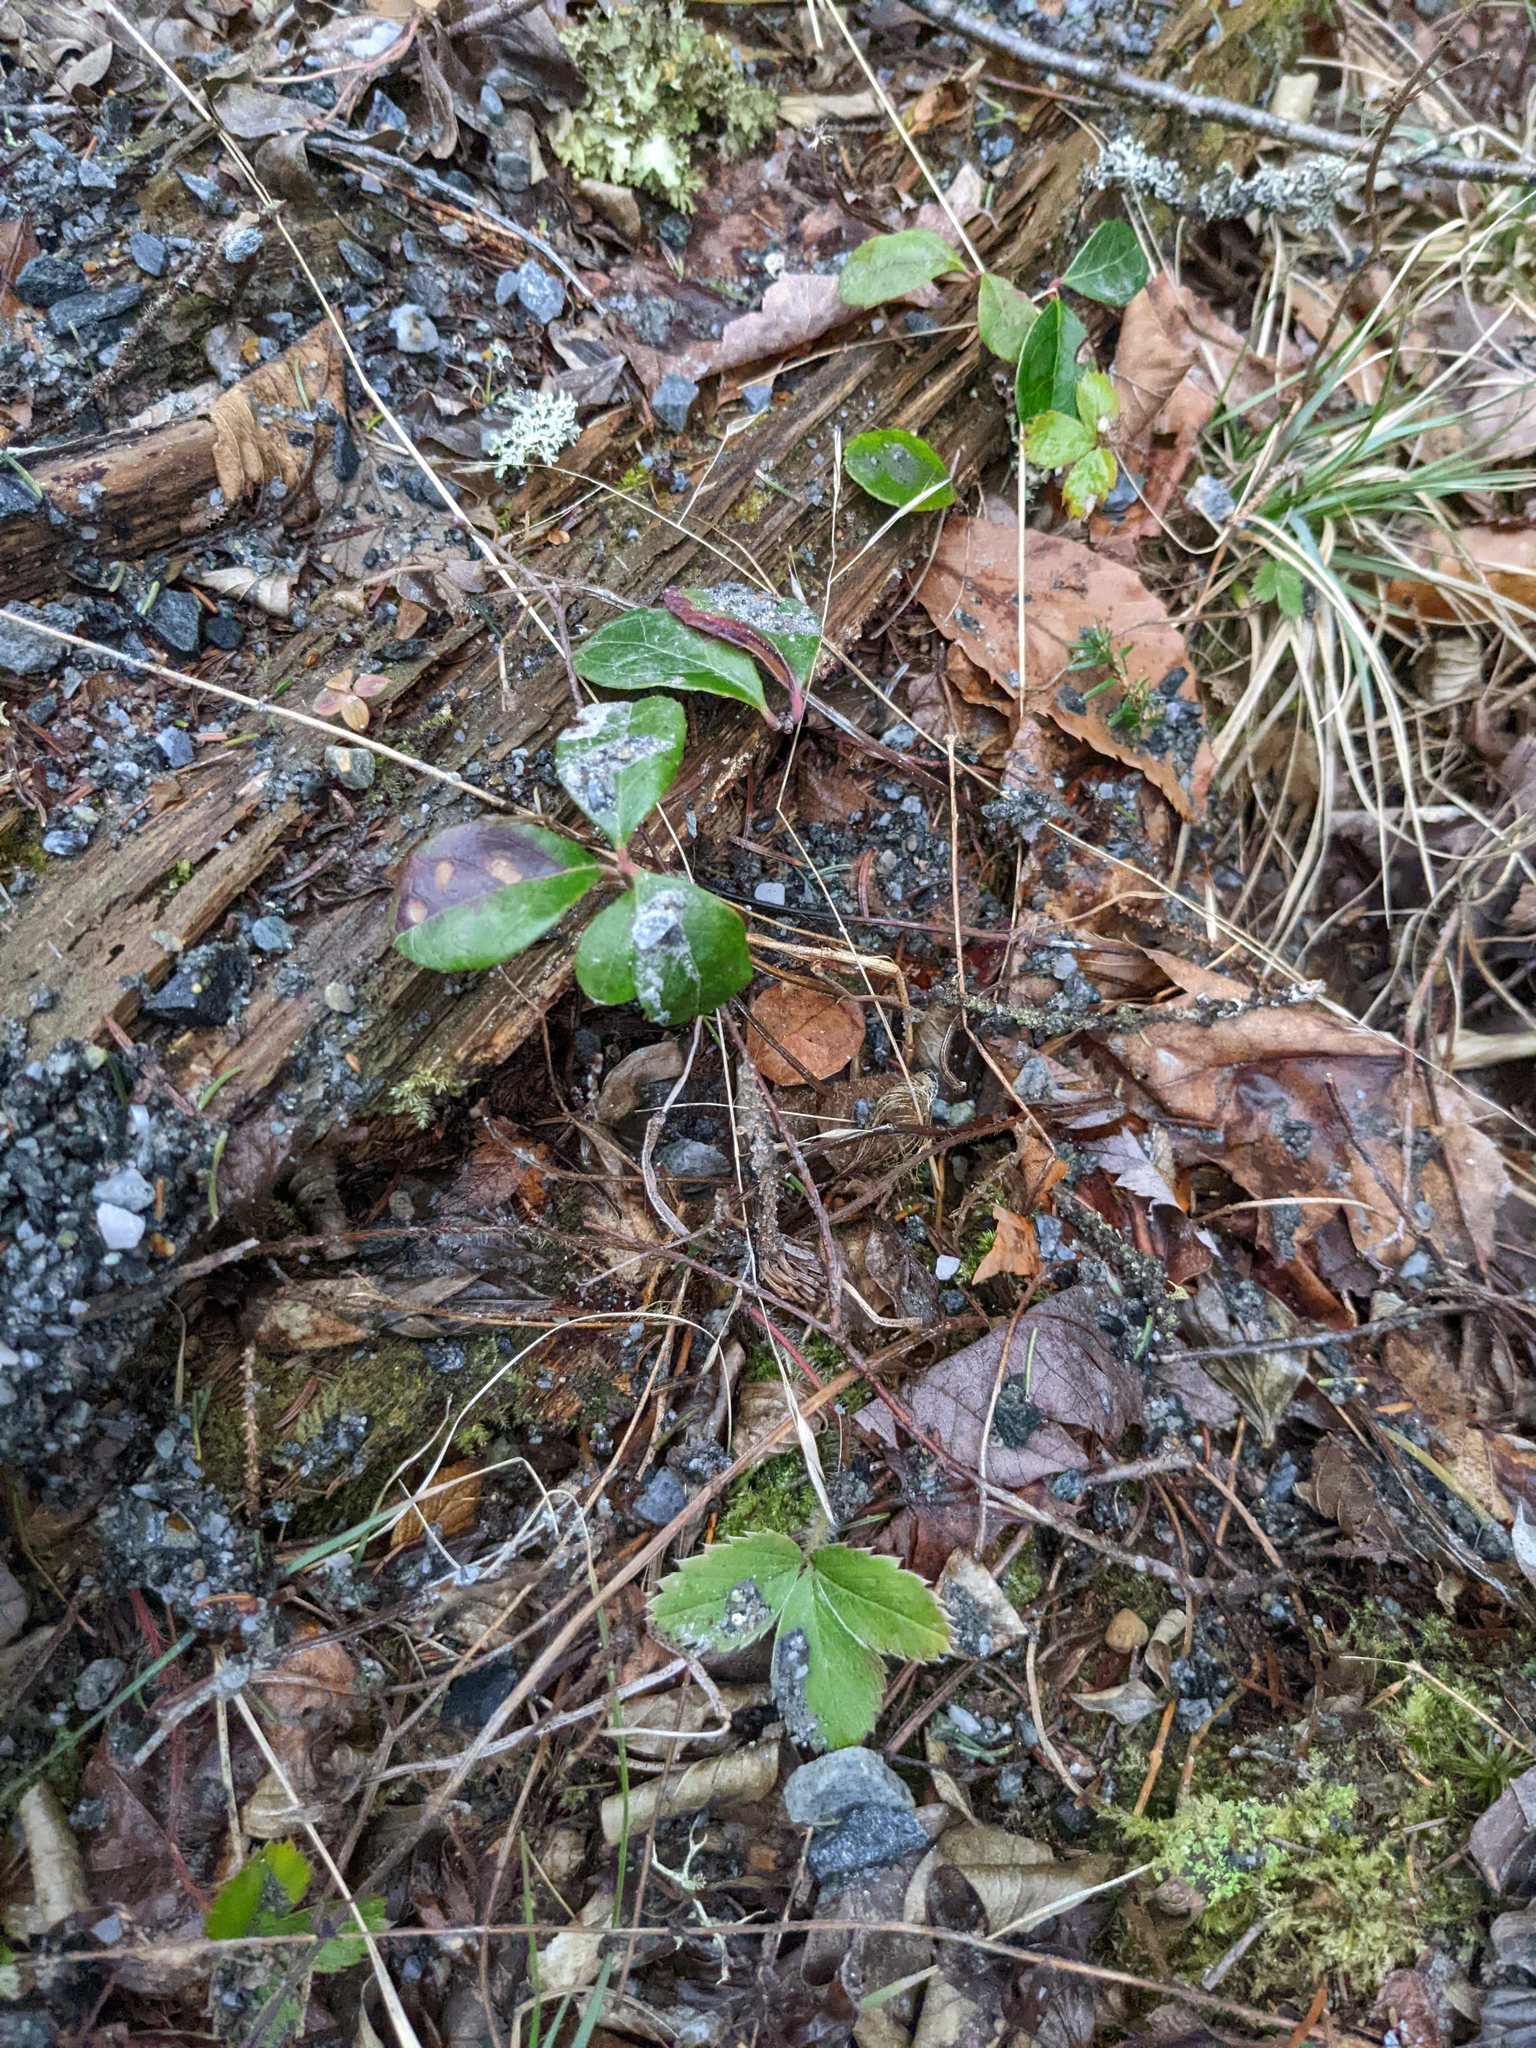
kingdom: Plantae
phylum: Tracheophyta
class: Magnoliopsida
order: Ericales
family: Ericaceae
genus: Gaultheria
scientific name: Gaultheria procumbens
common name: Checkerberry
